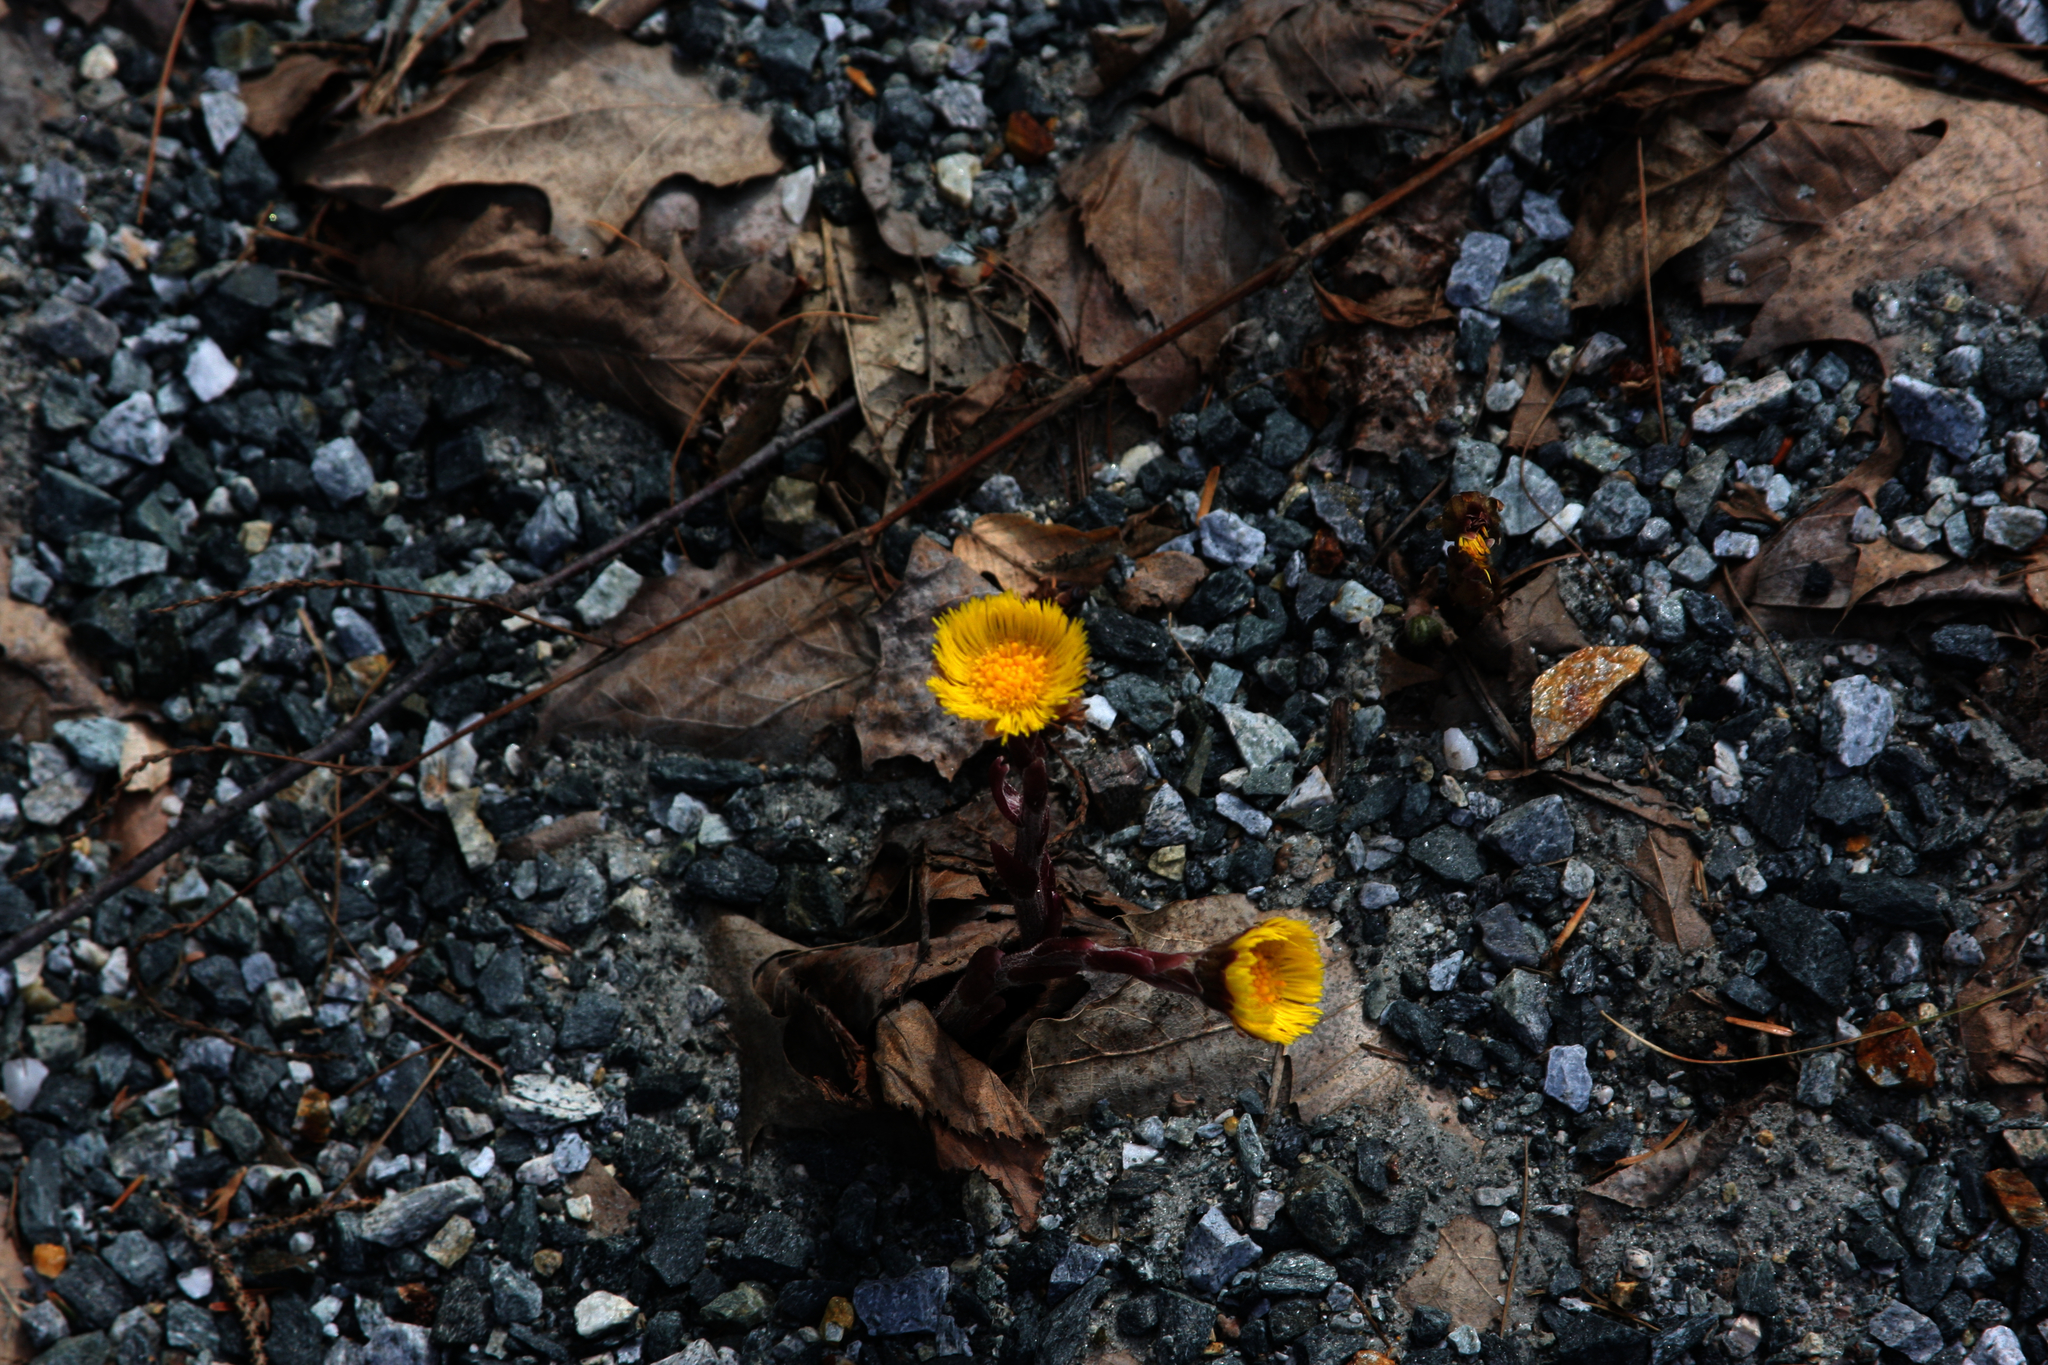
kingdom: Plantae
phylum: Tracheophyta
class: Magnoliopsida
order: Asterales
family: Asteraceae
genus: Tussilago
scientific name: Tussilago farfara
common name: Coltsfoot
